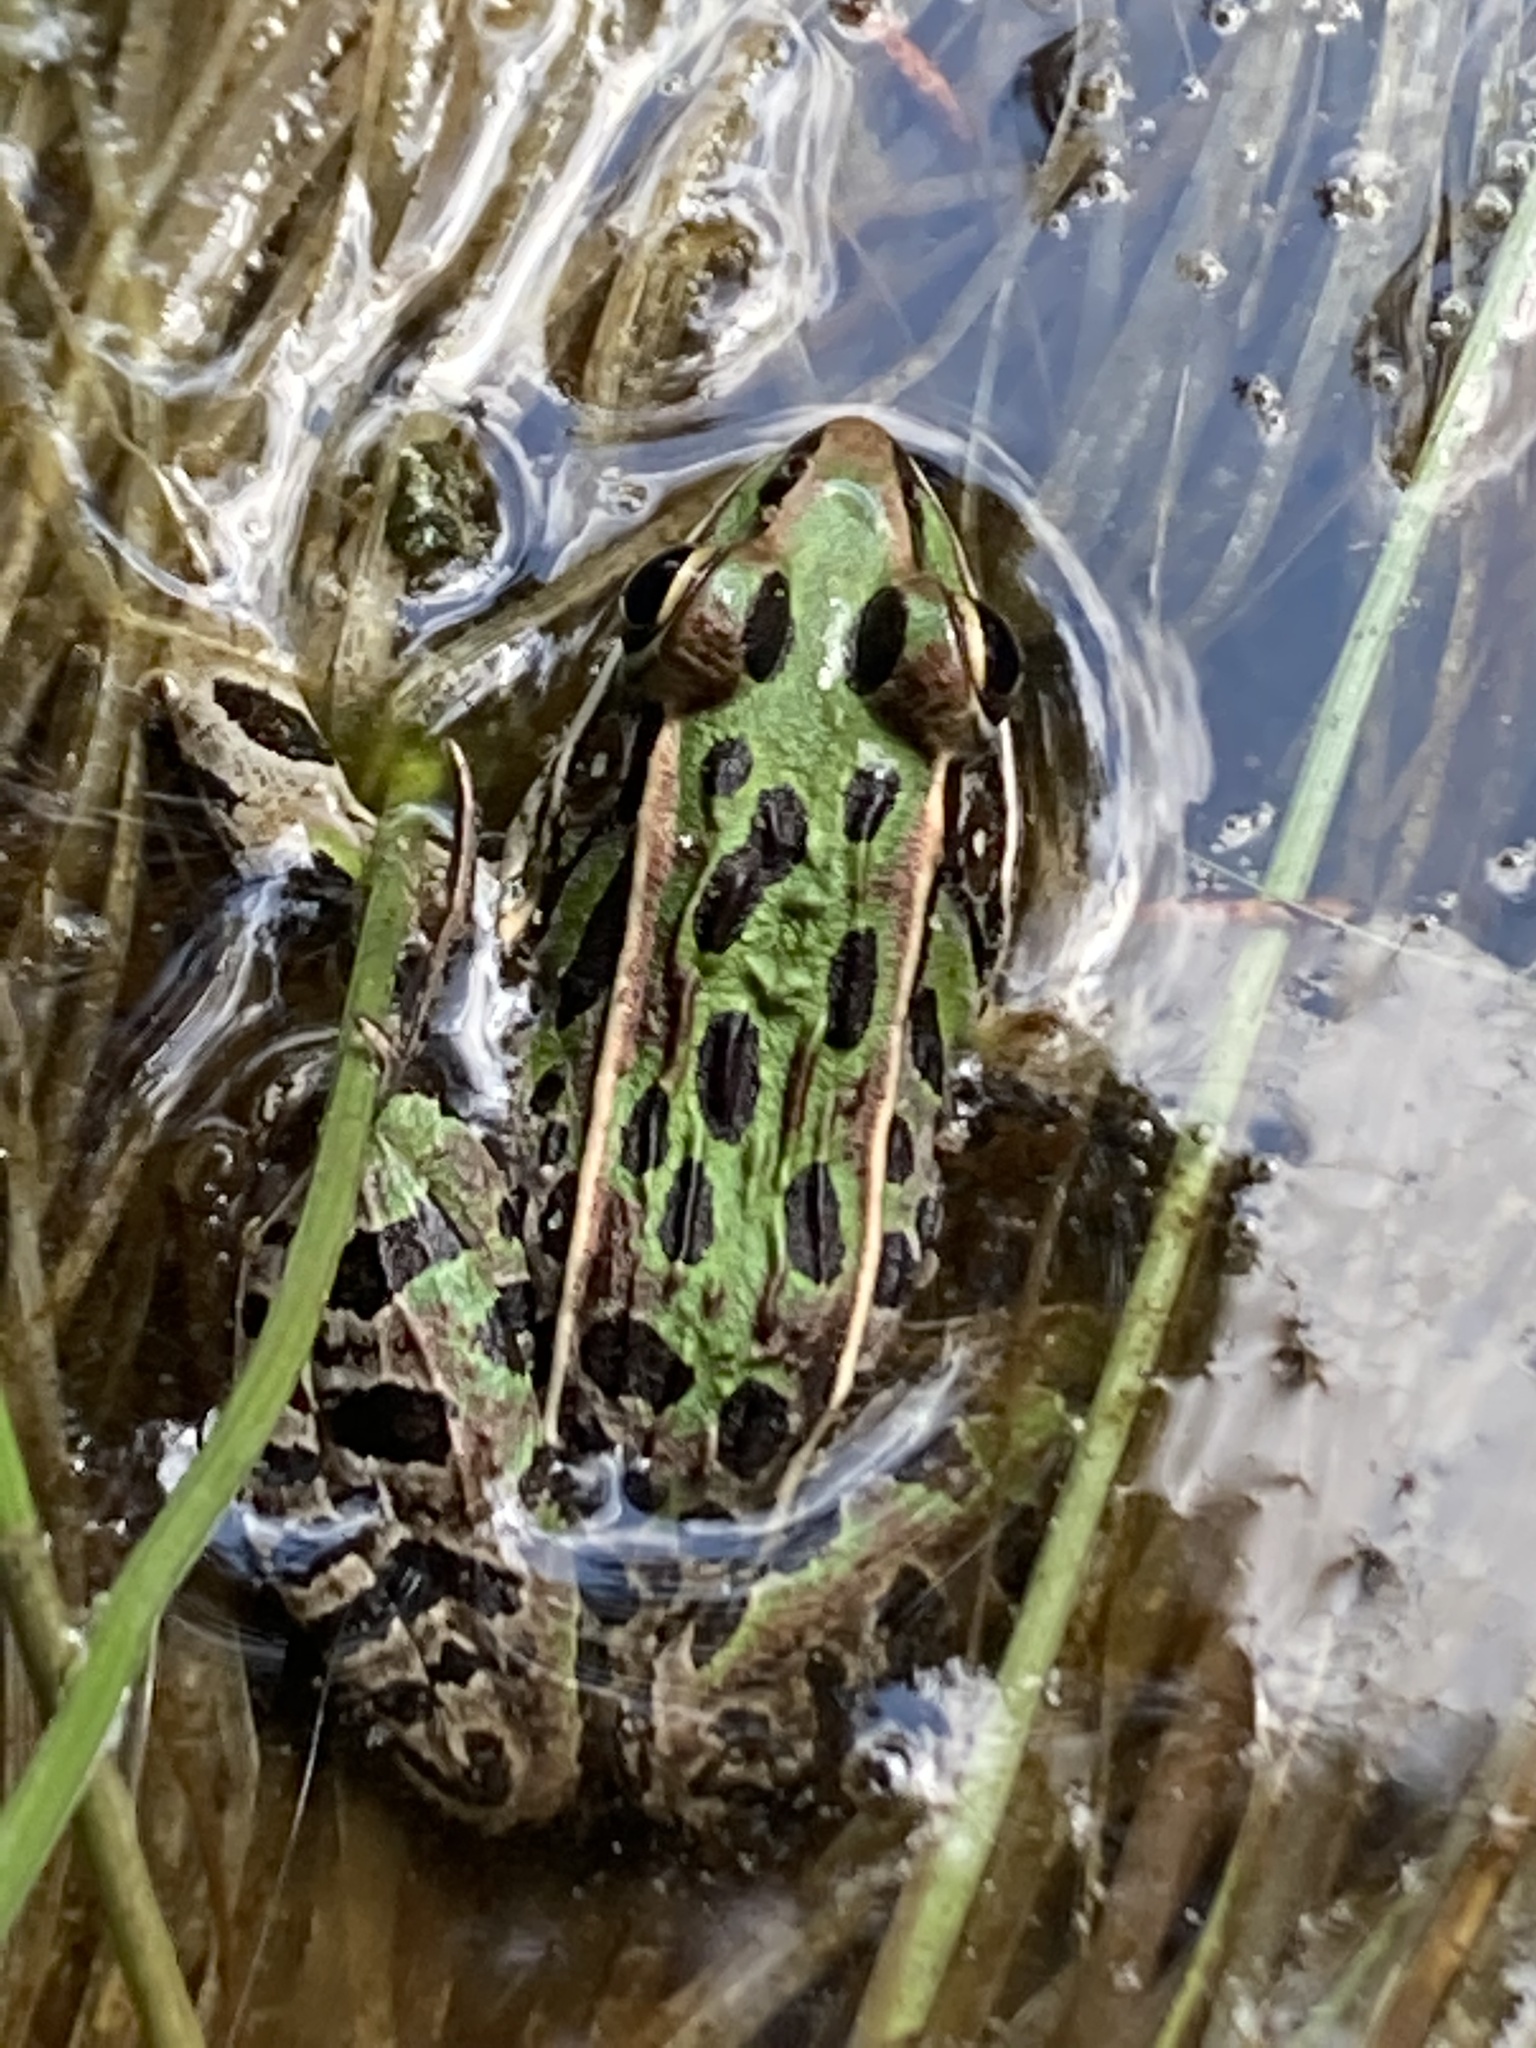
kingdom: Animalia
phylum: Chordata
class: Amphibia
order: Anura
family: Ranidae
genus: Lithobates
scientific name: Lithobates sphenocephalus
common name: Southern leopard frog
